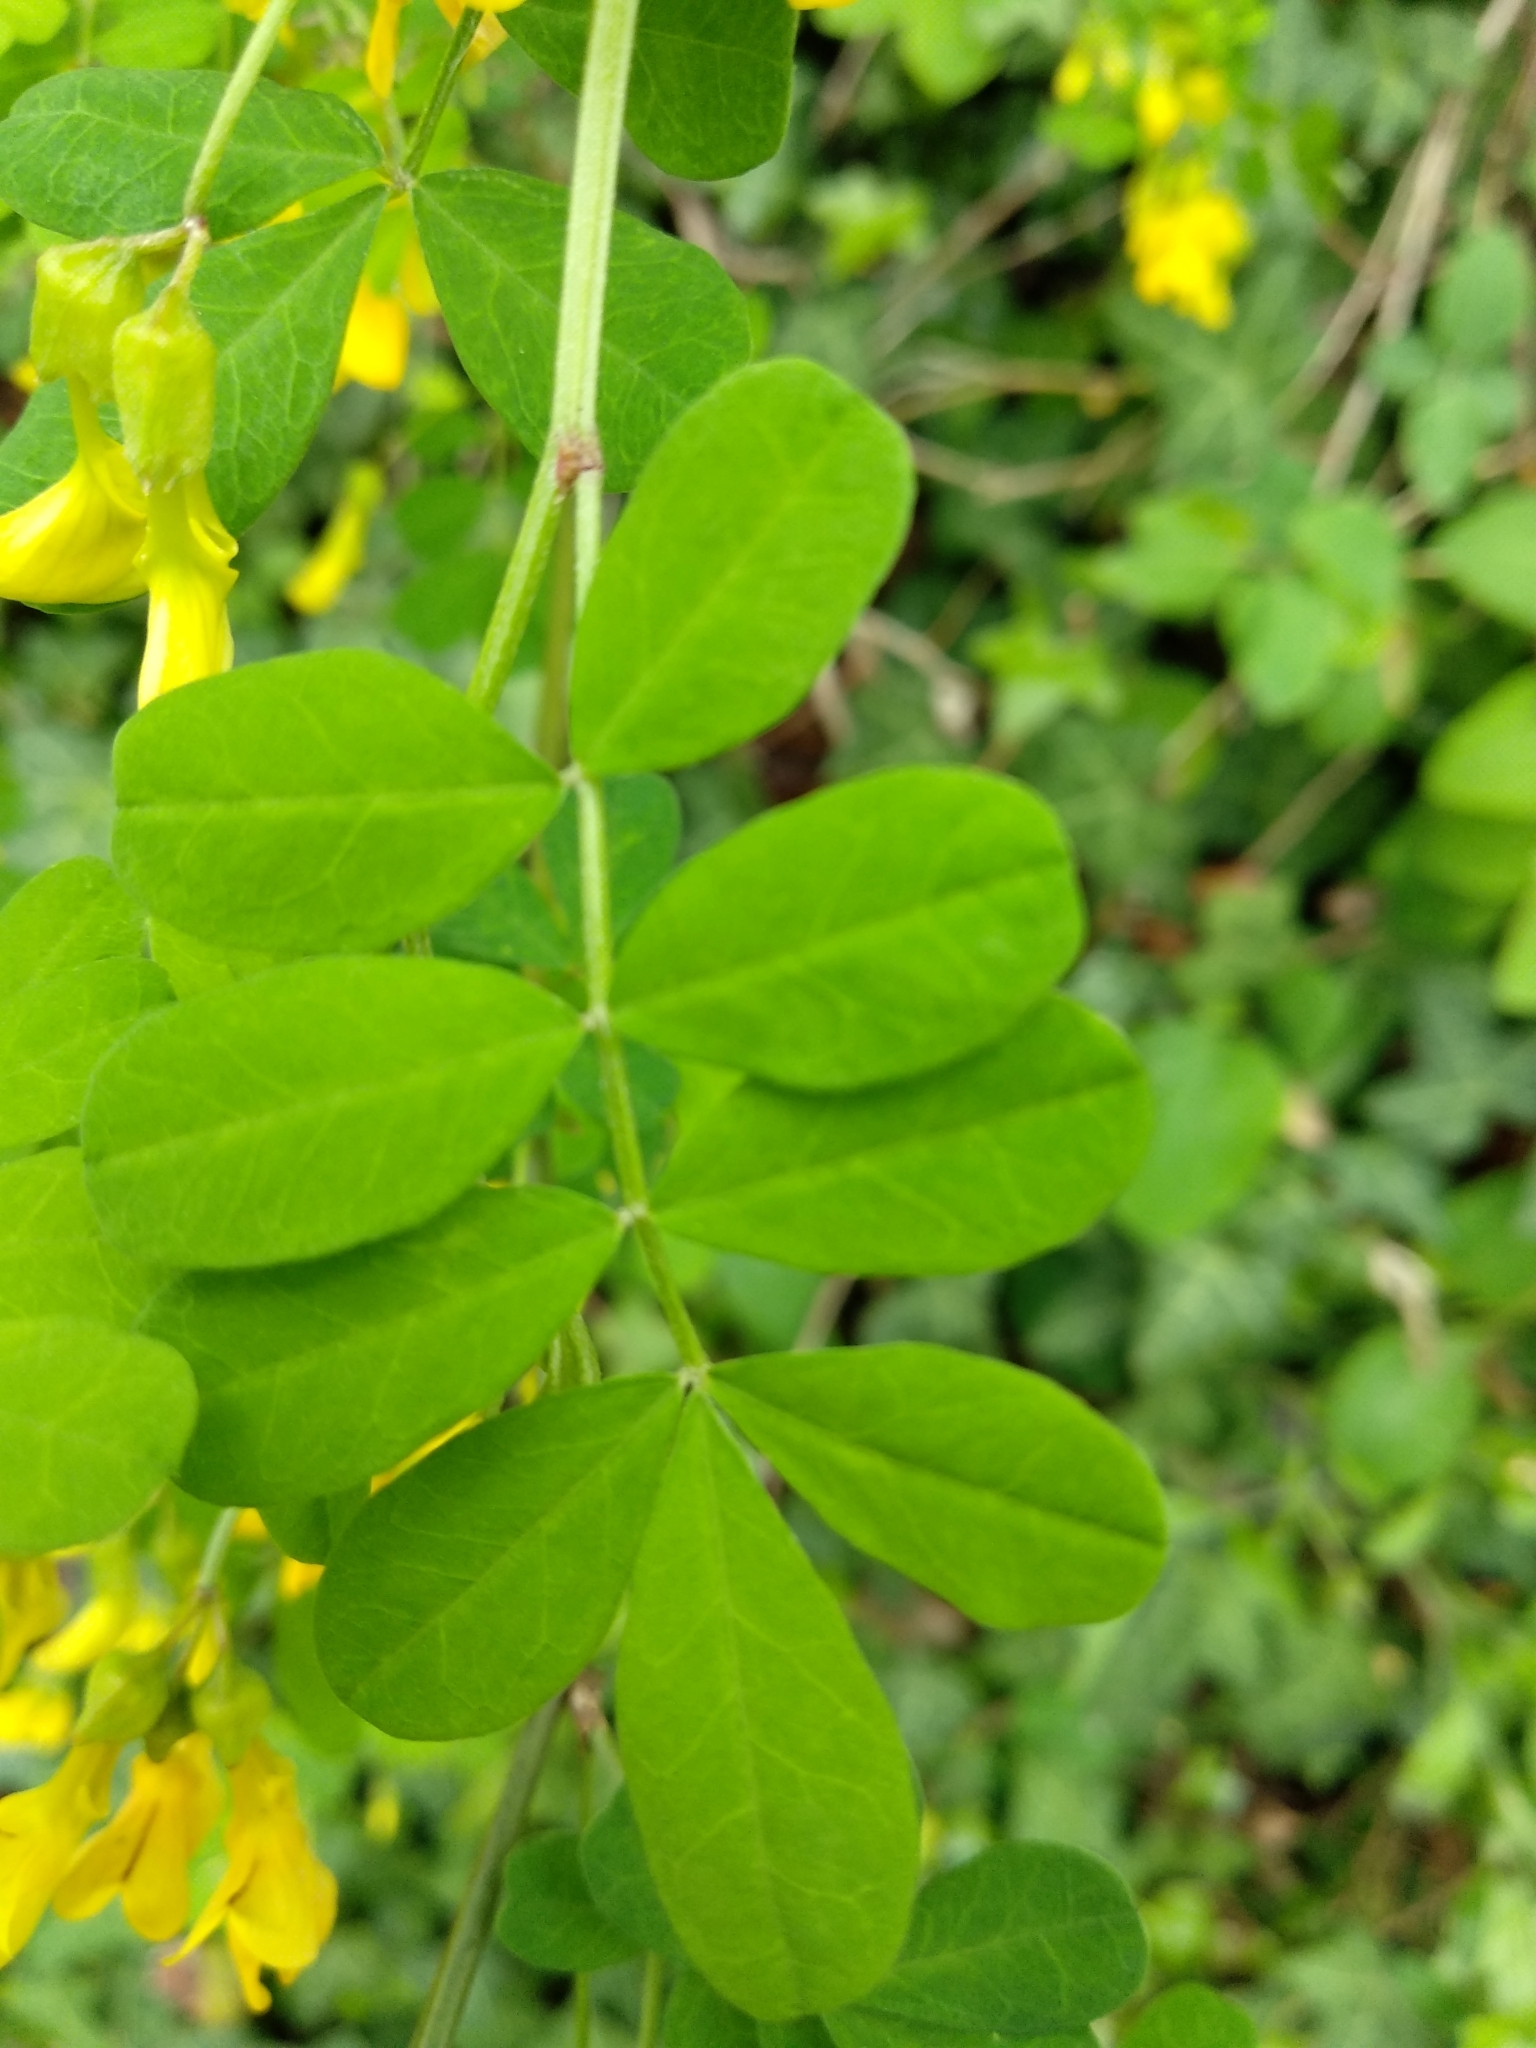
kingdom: Plantae
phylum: Tracheophyta
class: Magnoliopsida
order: Fabales
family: Fabaceae
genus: Hippocrepis
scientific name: Hippocrepis emerus
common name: Scorpion senna
